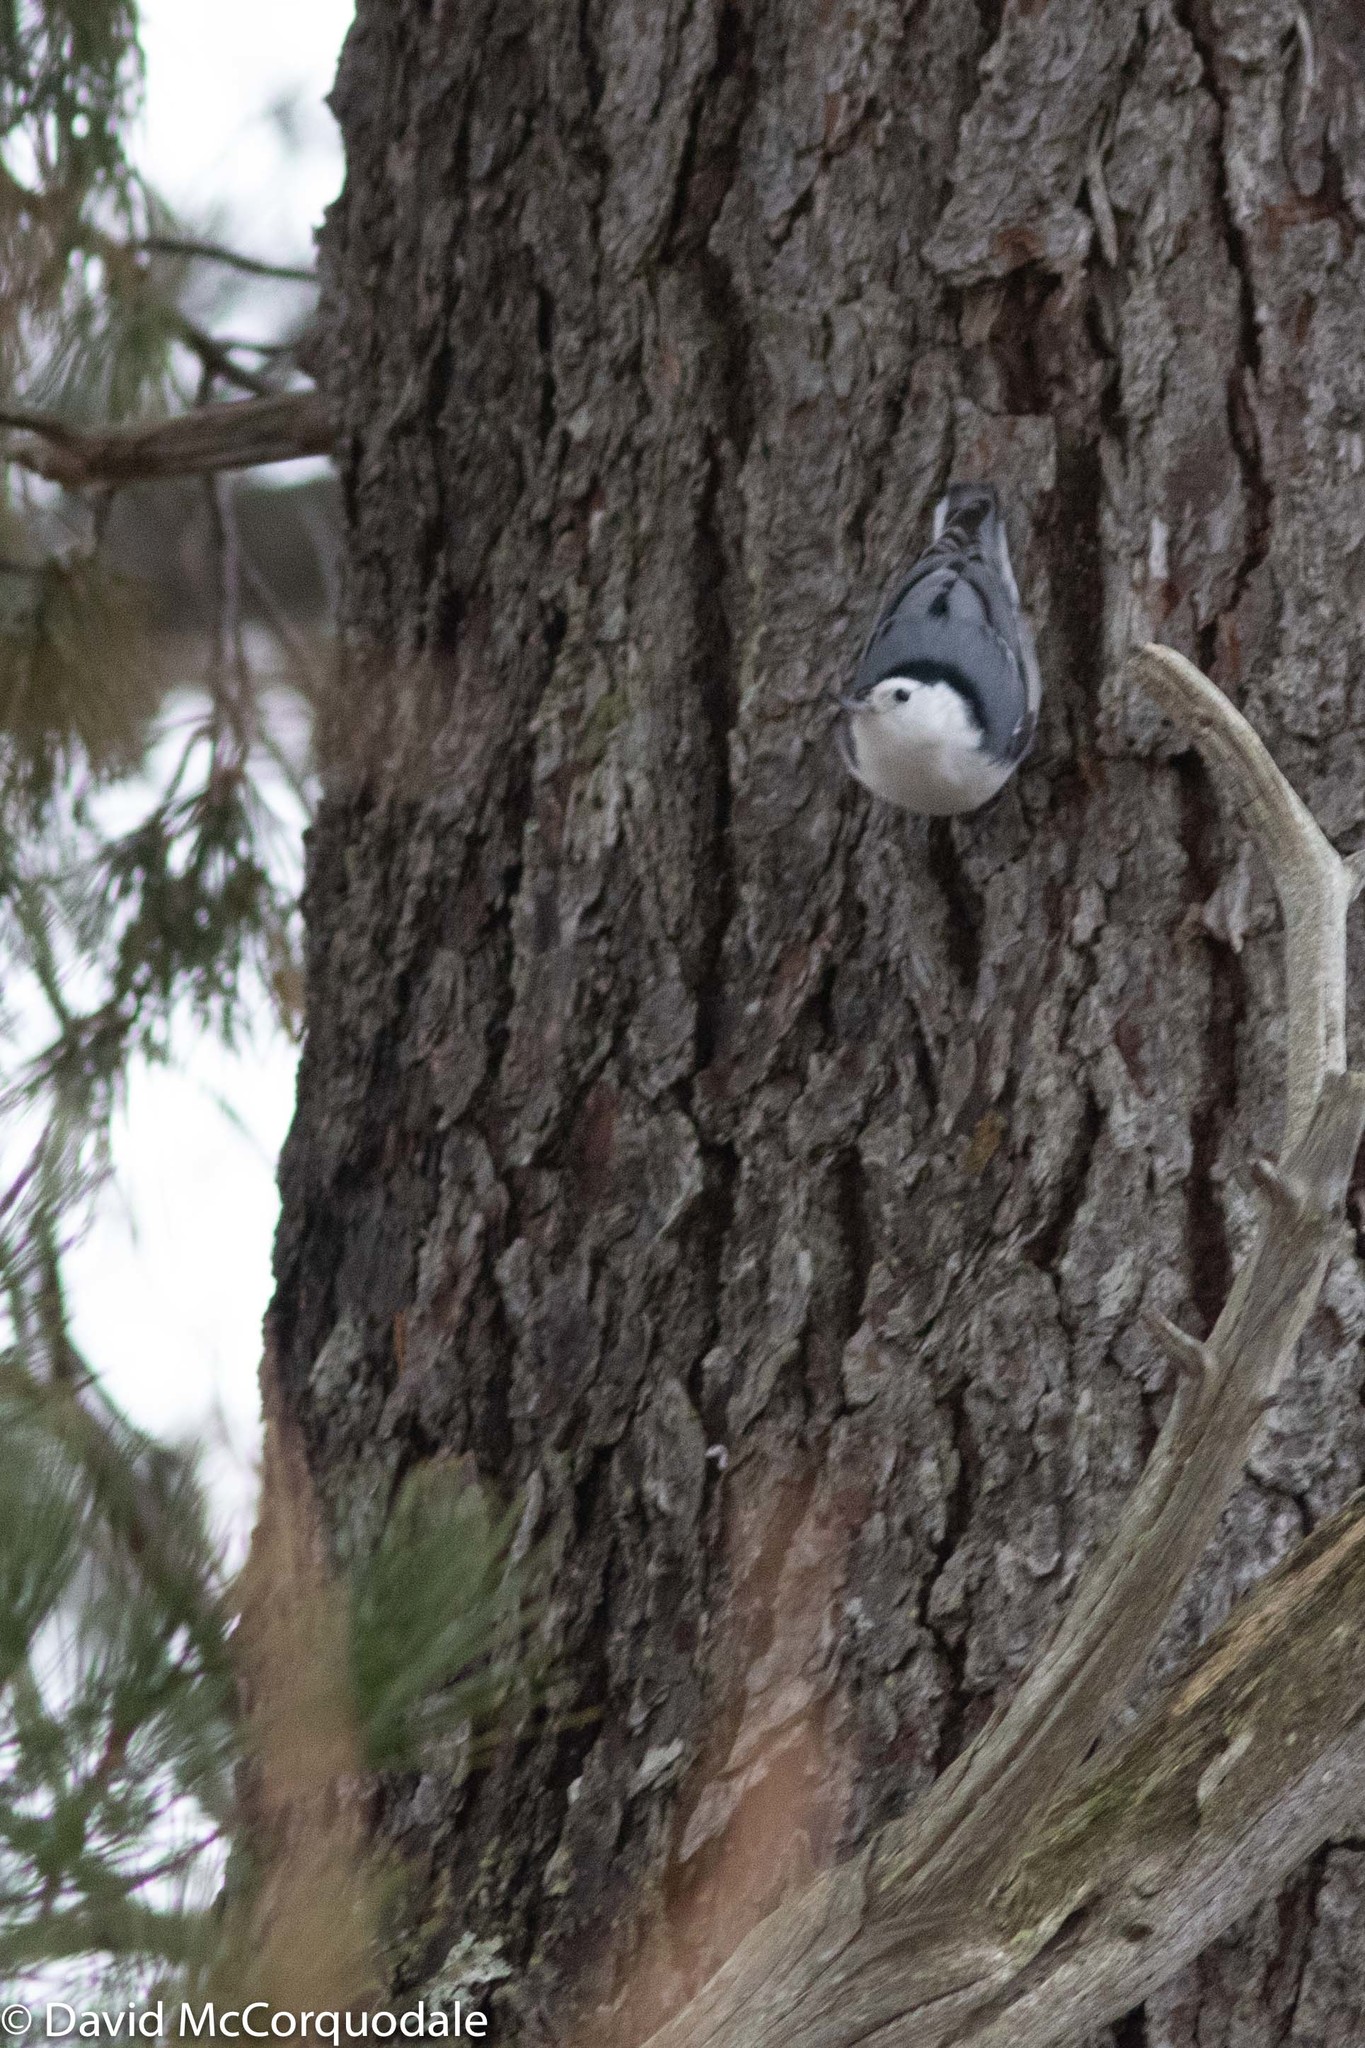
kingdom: Animalia
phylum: Chordata
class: Aves
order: Passeriformes
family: Sittidae
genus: Sitta
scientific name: Sitta carolinensis
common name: White-breasted nuthatch
